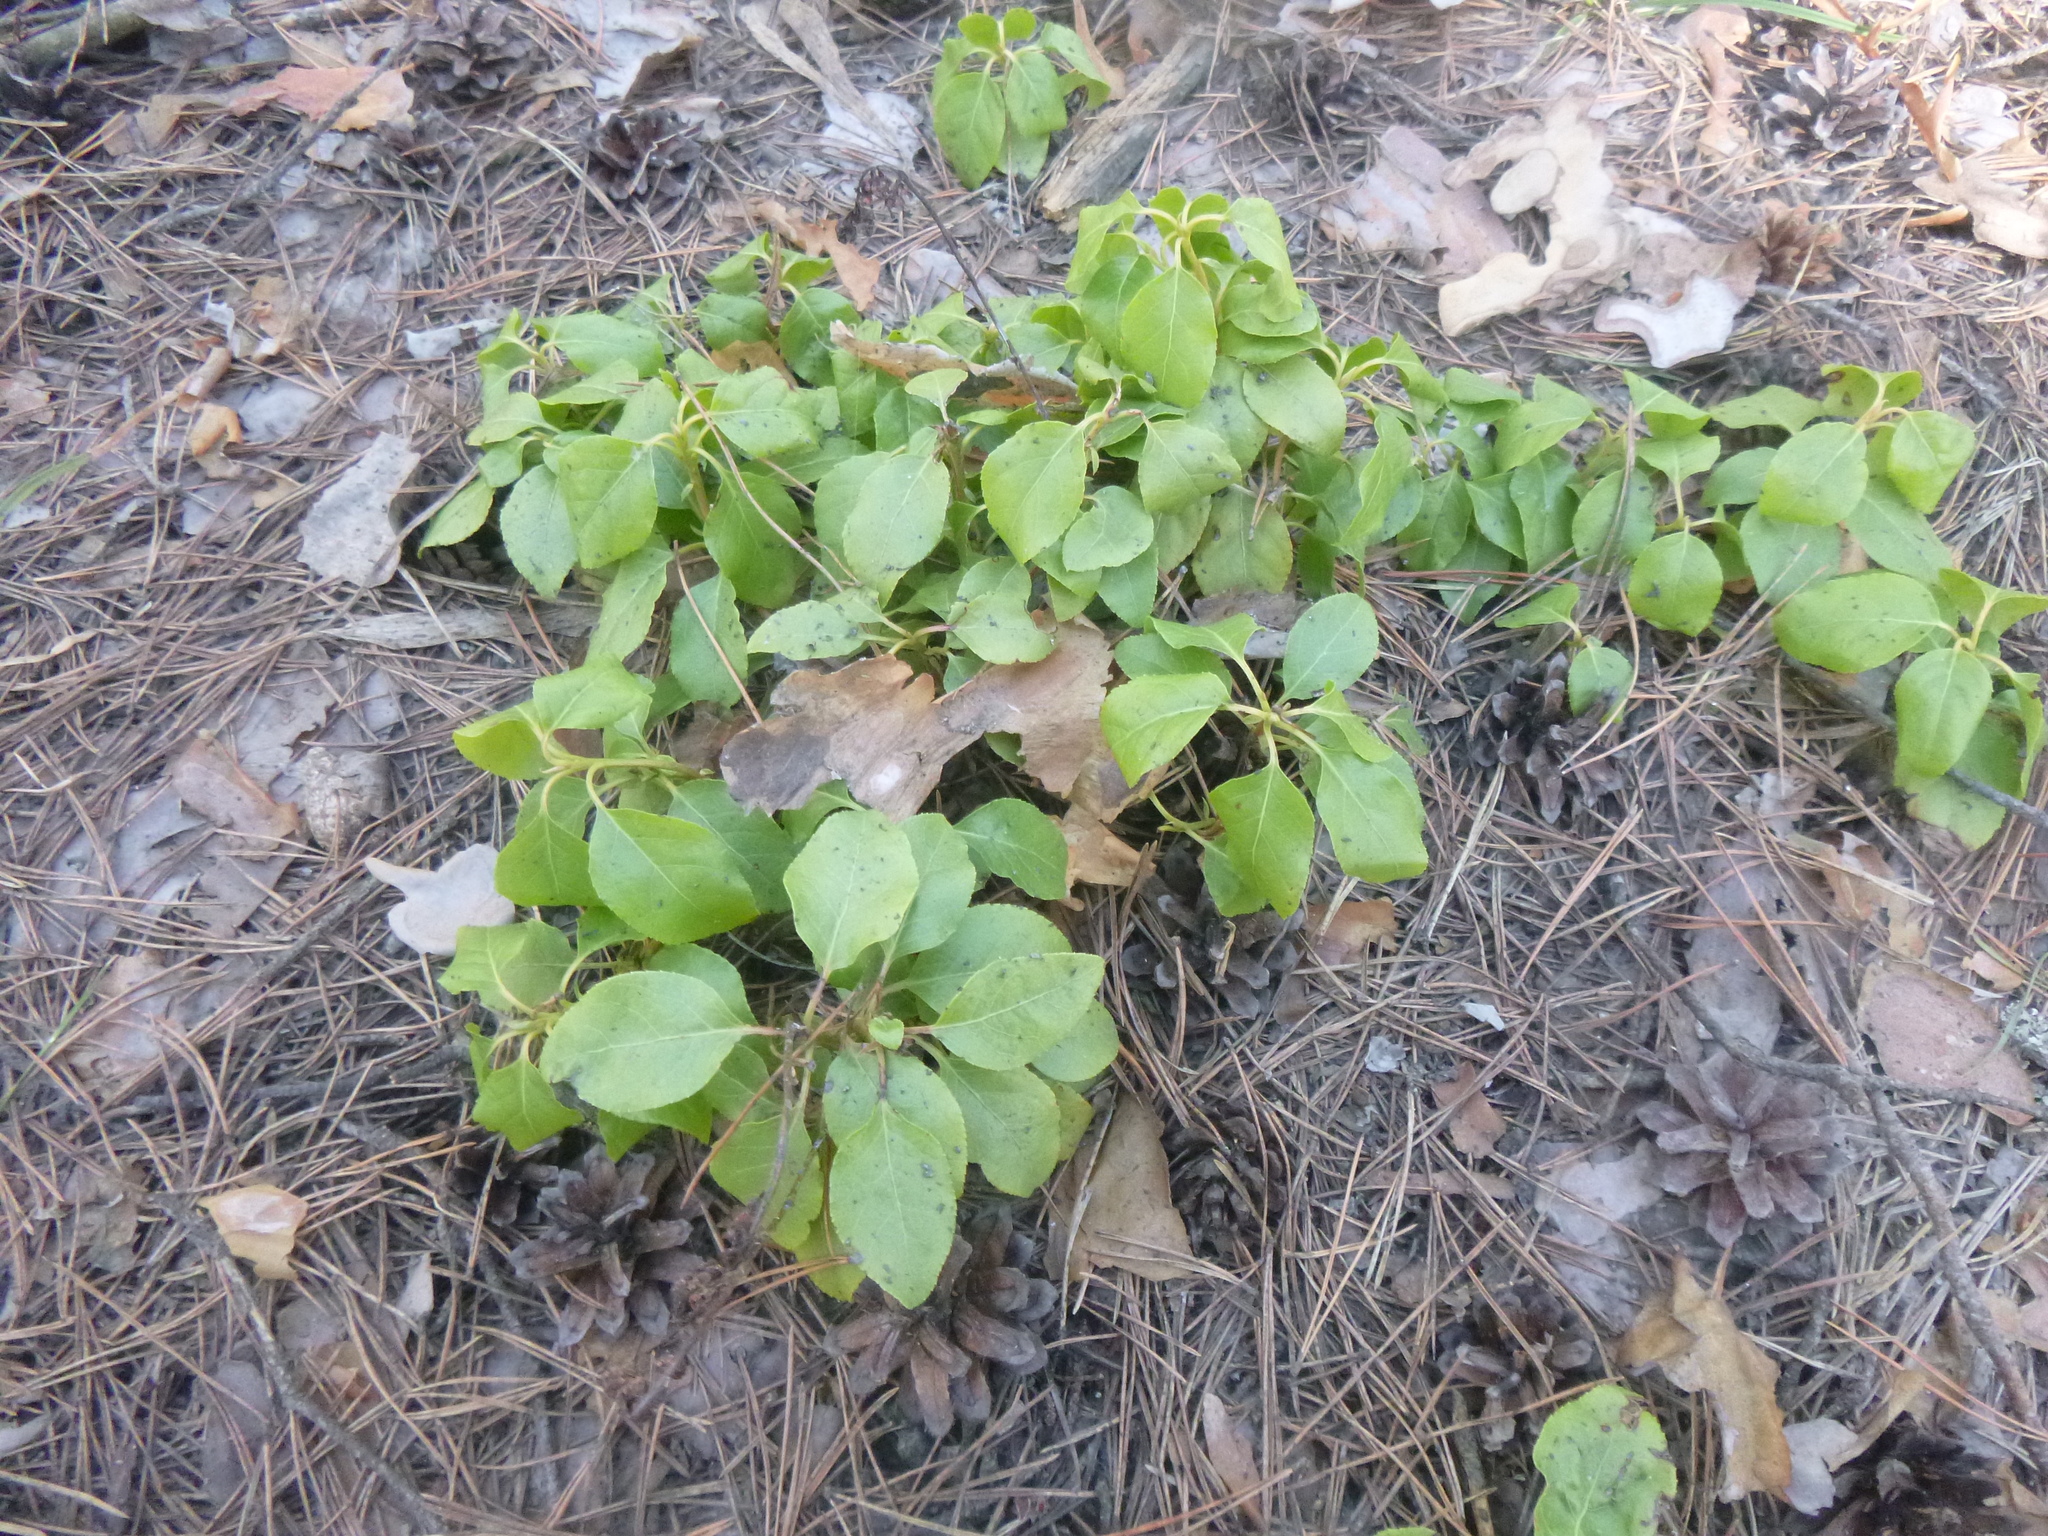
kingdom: Plantae
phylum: Tracheophyta
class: Magnoliopsida
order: Ericales
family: Ericaceae
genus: Orthilia
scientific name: Orthilia secunda
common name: One-sided orthilia
